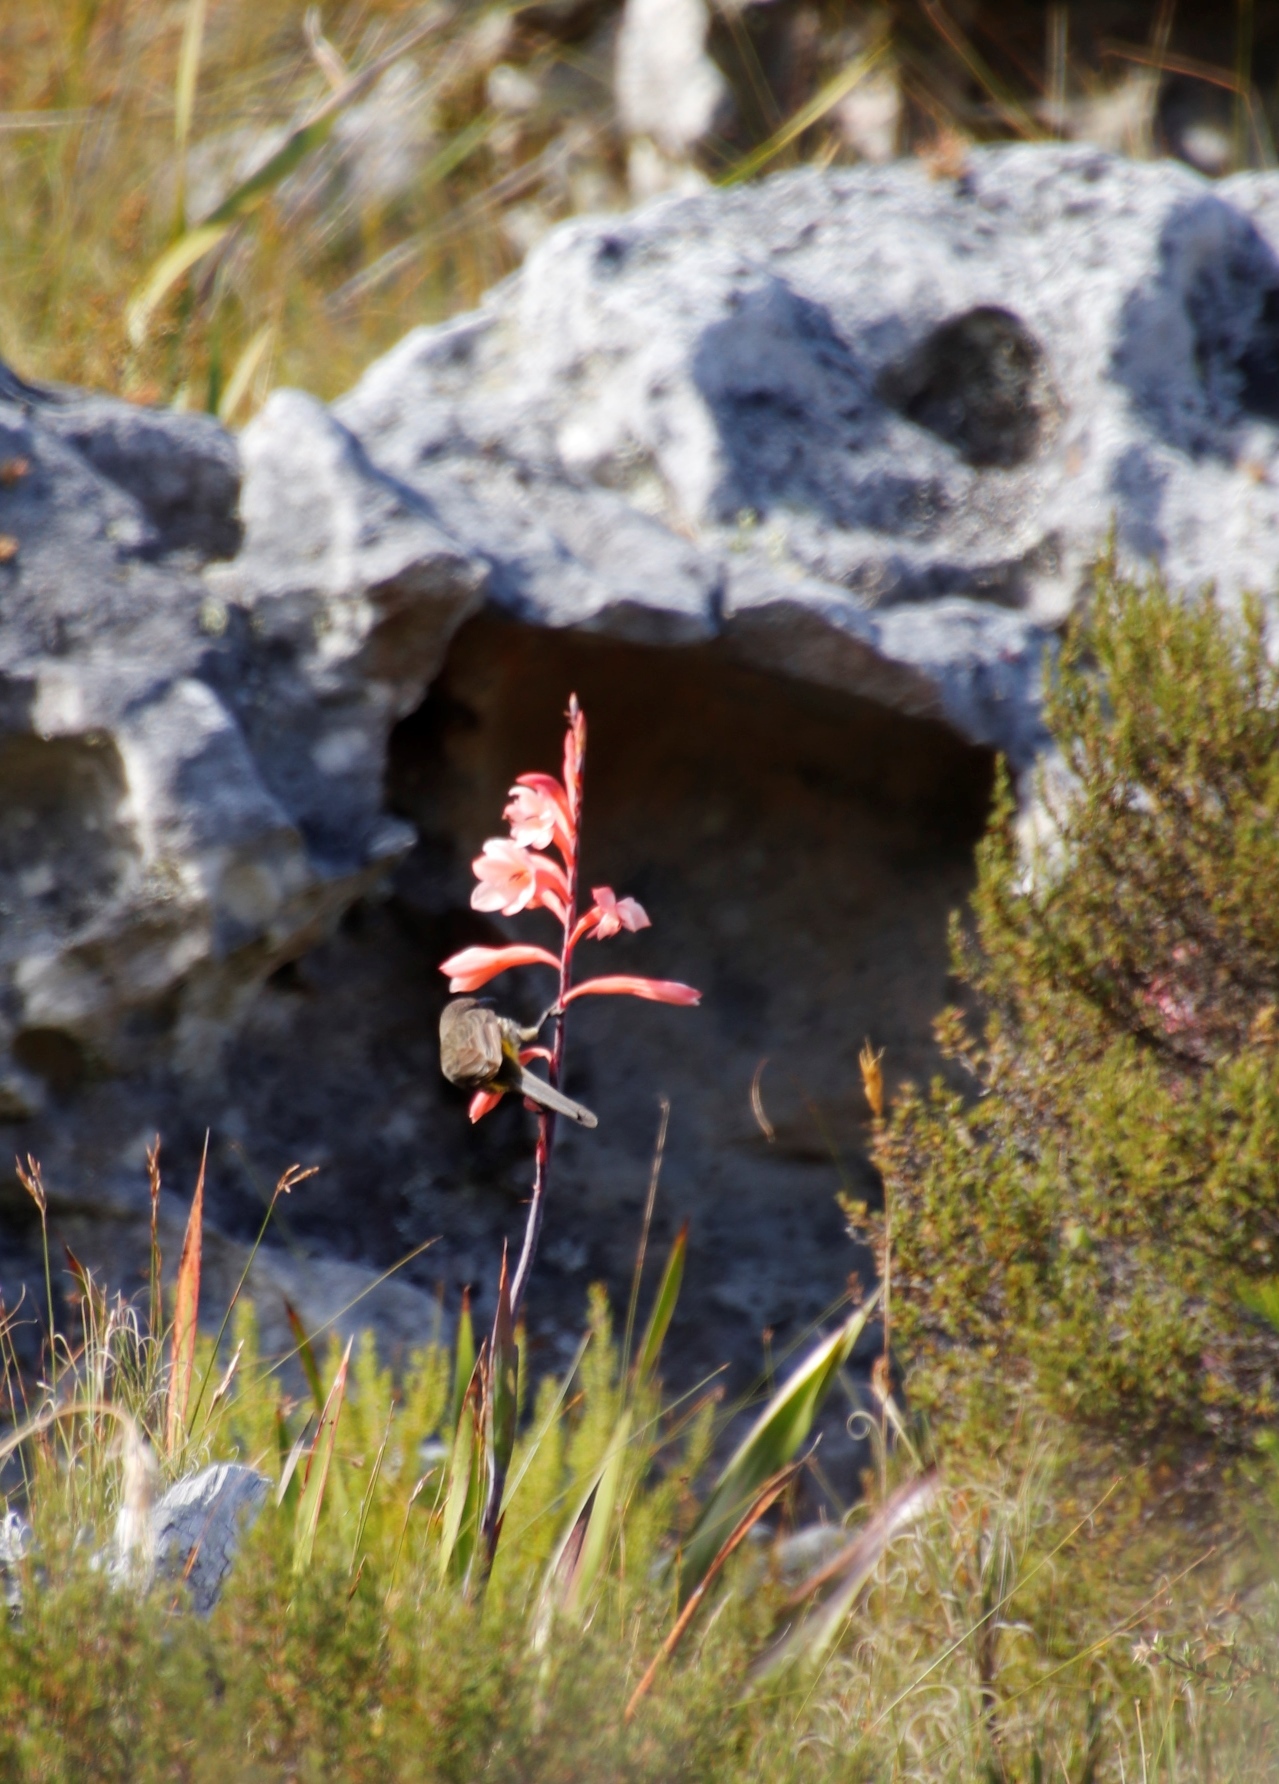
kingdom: Plantae
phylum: Tracheophyta
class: Liliopsida
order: Asparagales
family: Iridaceae
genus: Watsonia
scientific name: Watsonia tabularis
